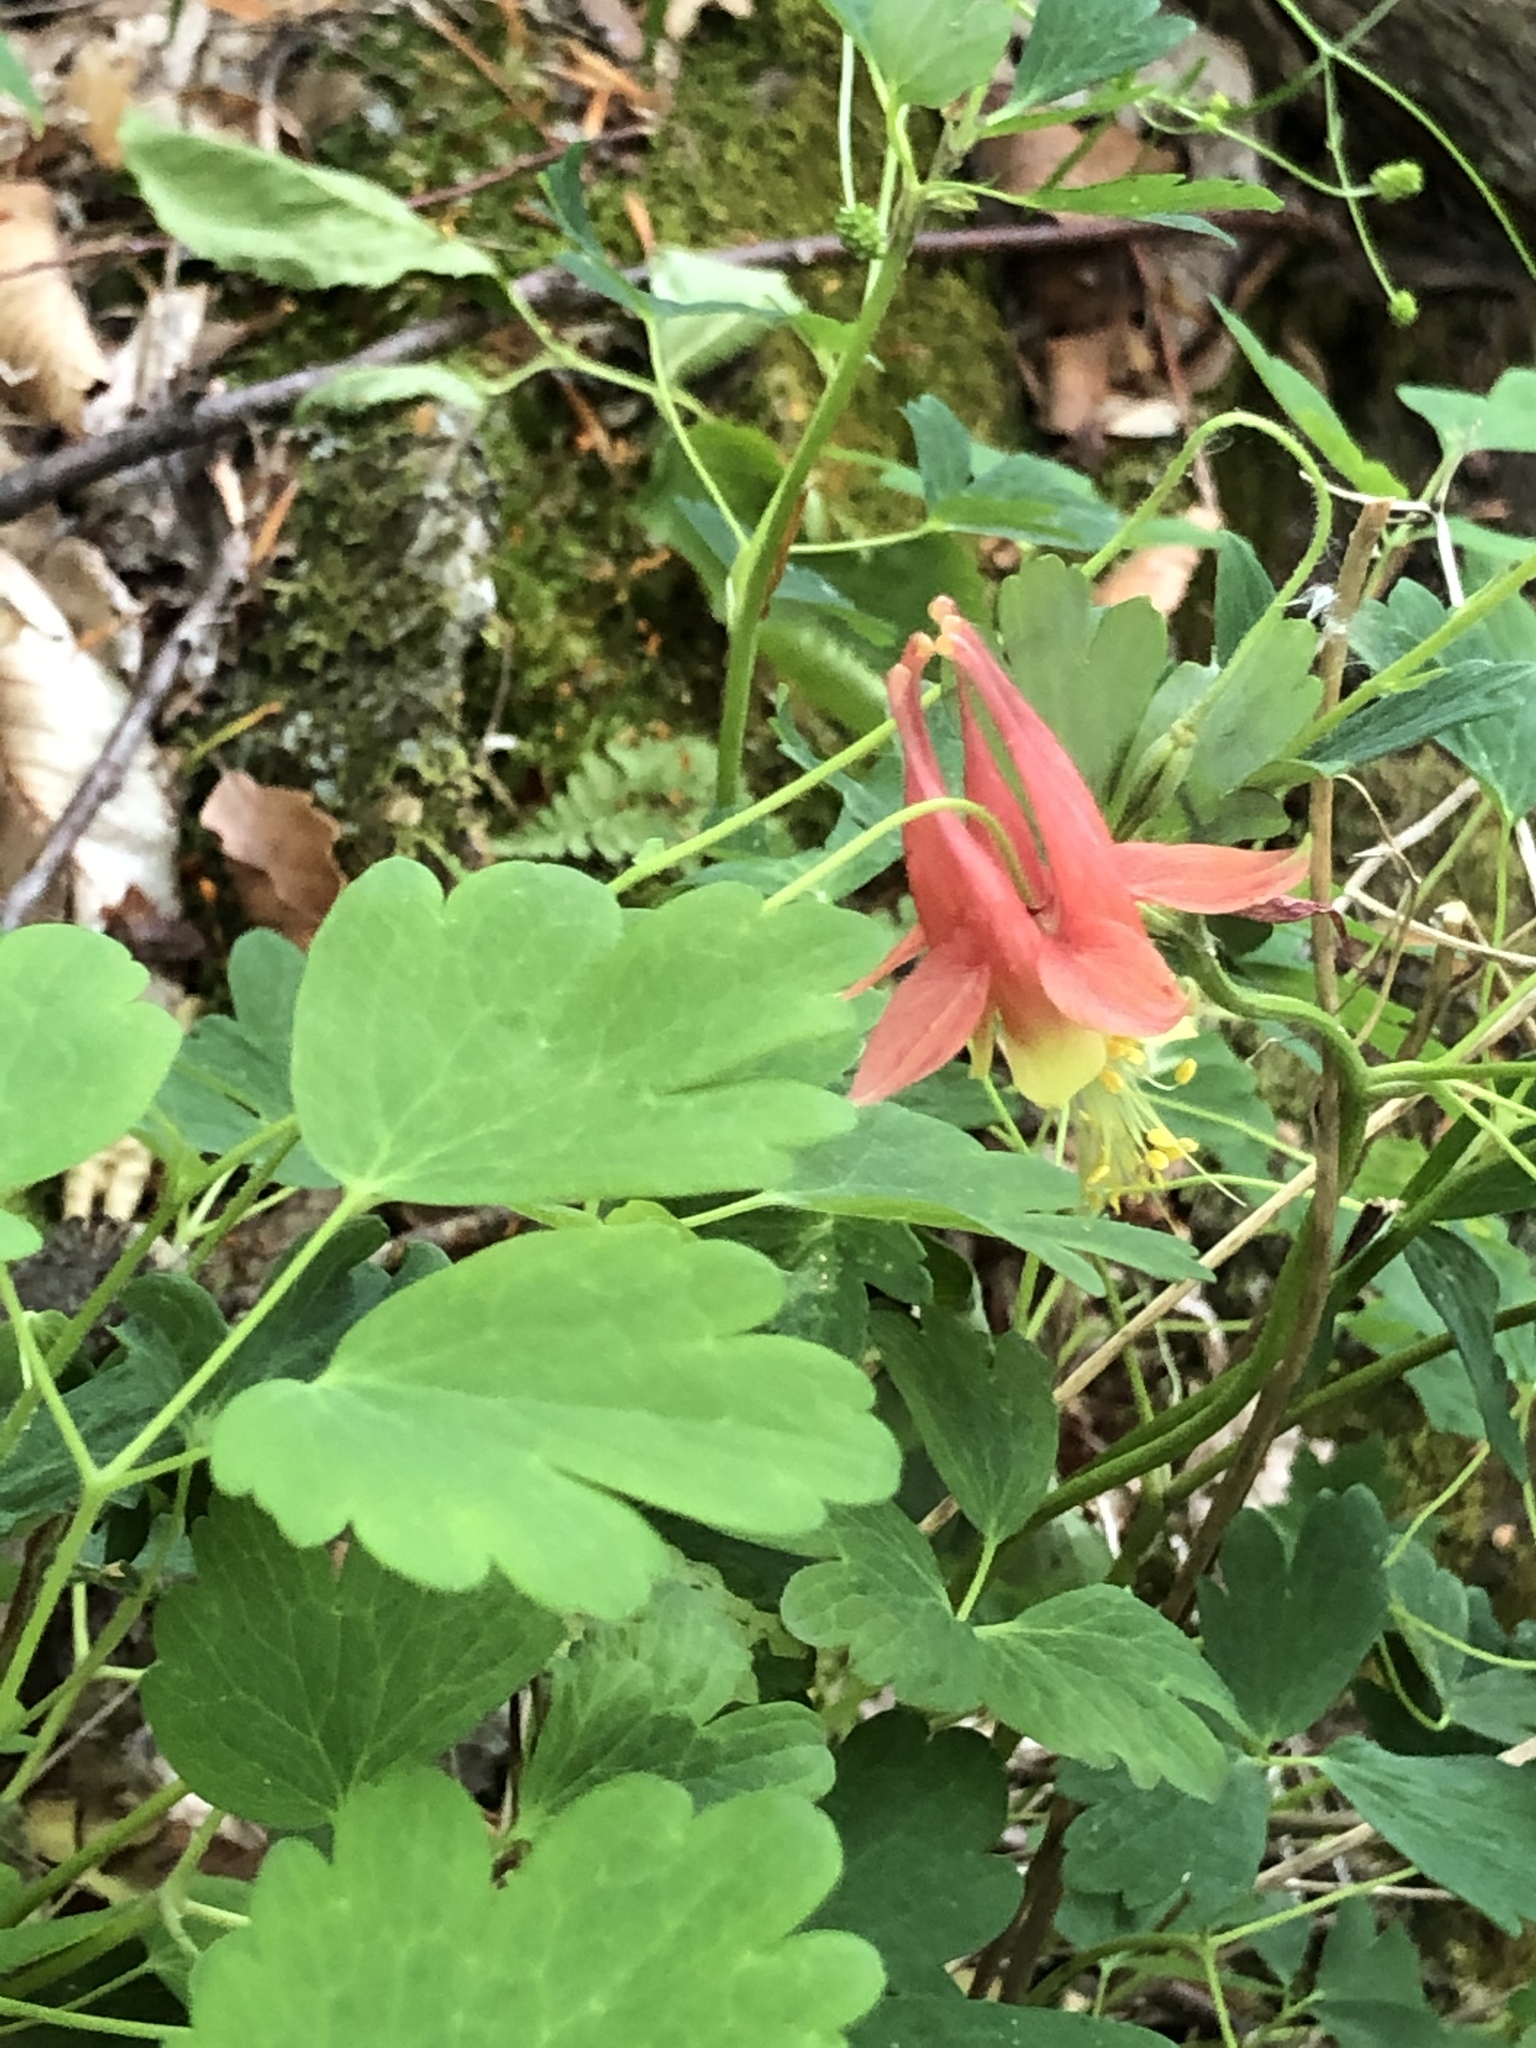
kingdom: Plantae
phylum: Tracheophyta
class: Magnoliopsida
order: Ranunculales
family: Ranunculaceae
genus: Aquilegia
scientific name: Aquilegia canadensis
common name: American columbine
